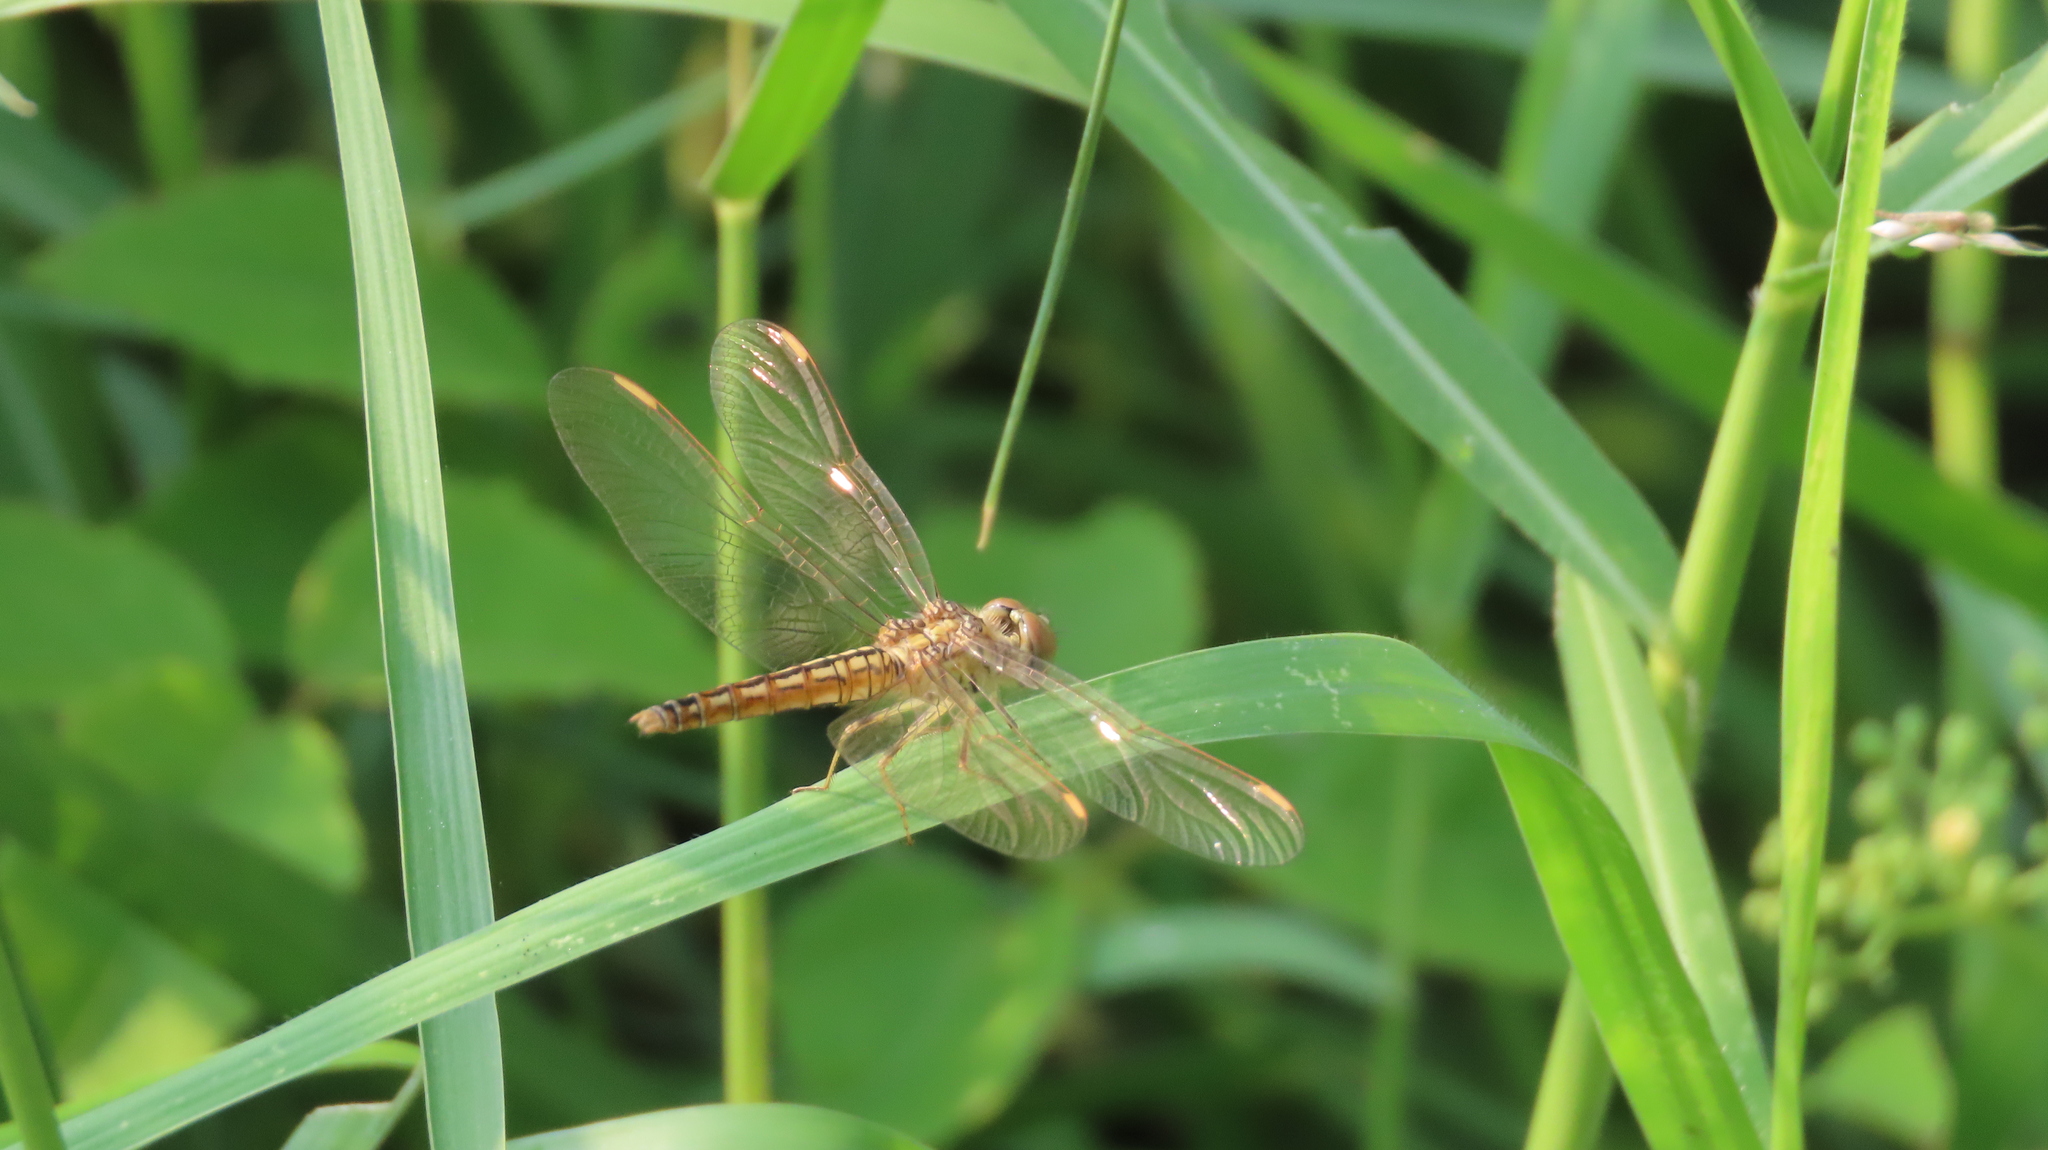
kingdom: Animalia
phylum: Arthropoda
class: Insecta
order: Odonata
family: Libellulidae
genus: Brachythemis
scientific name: Brachythemis contaminata
